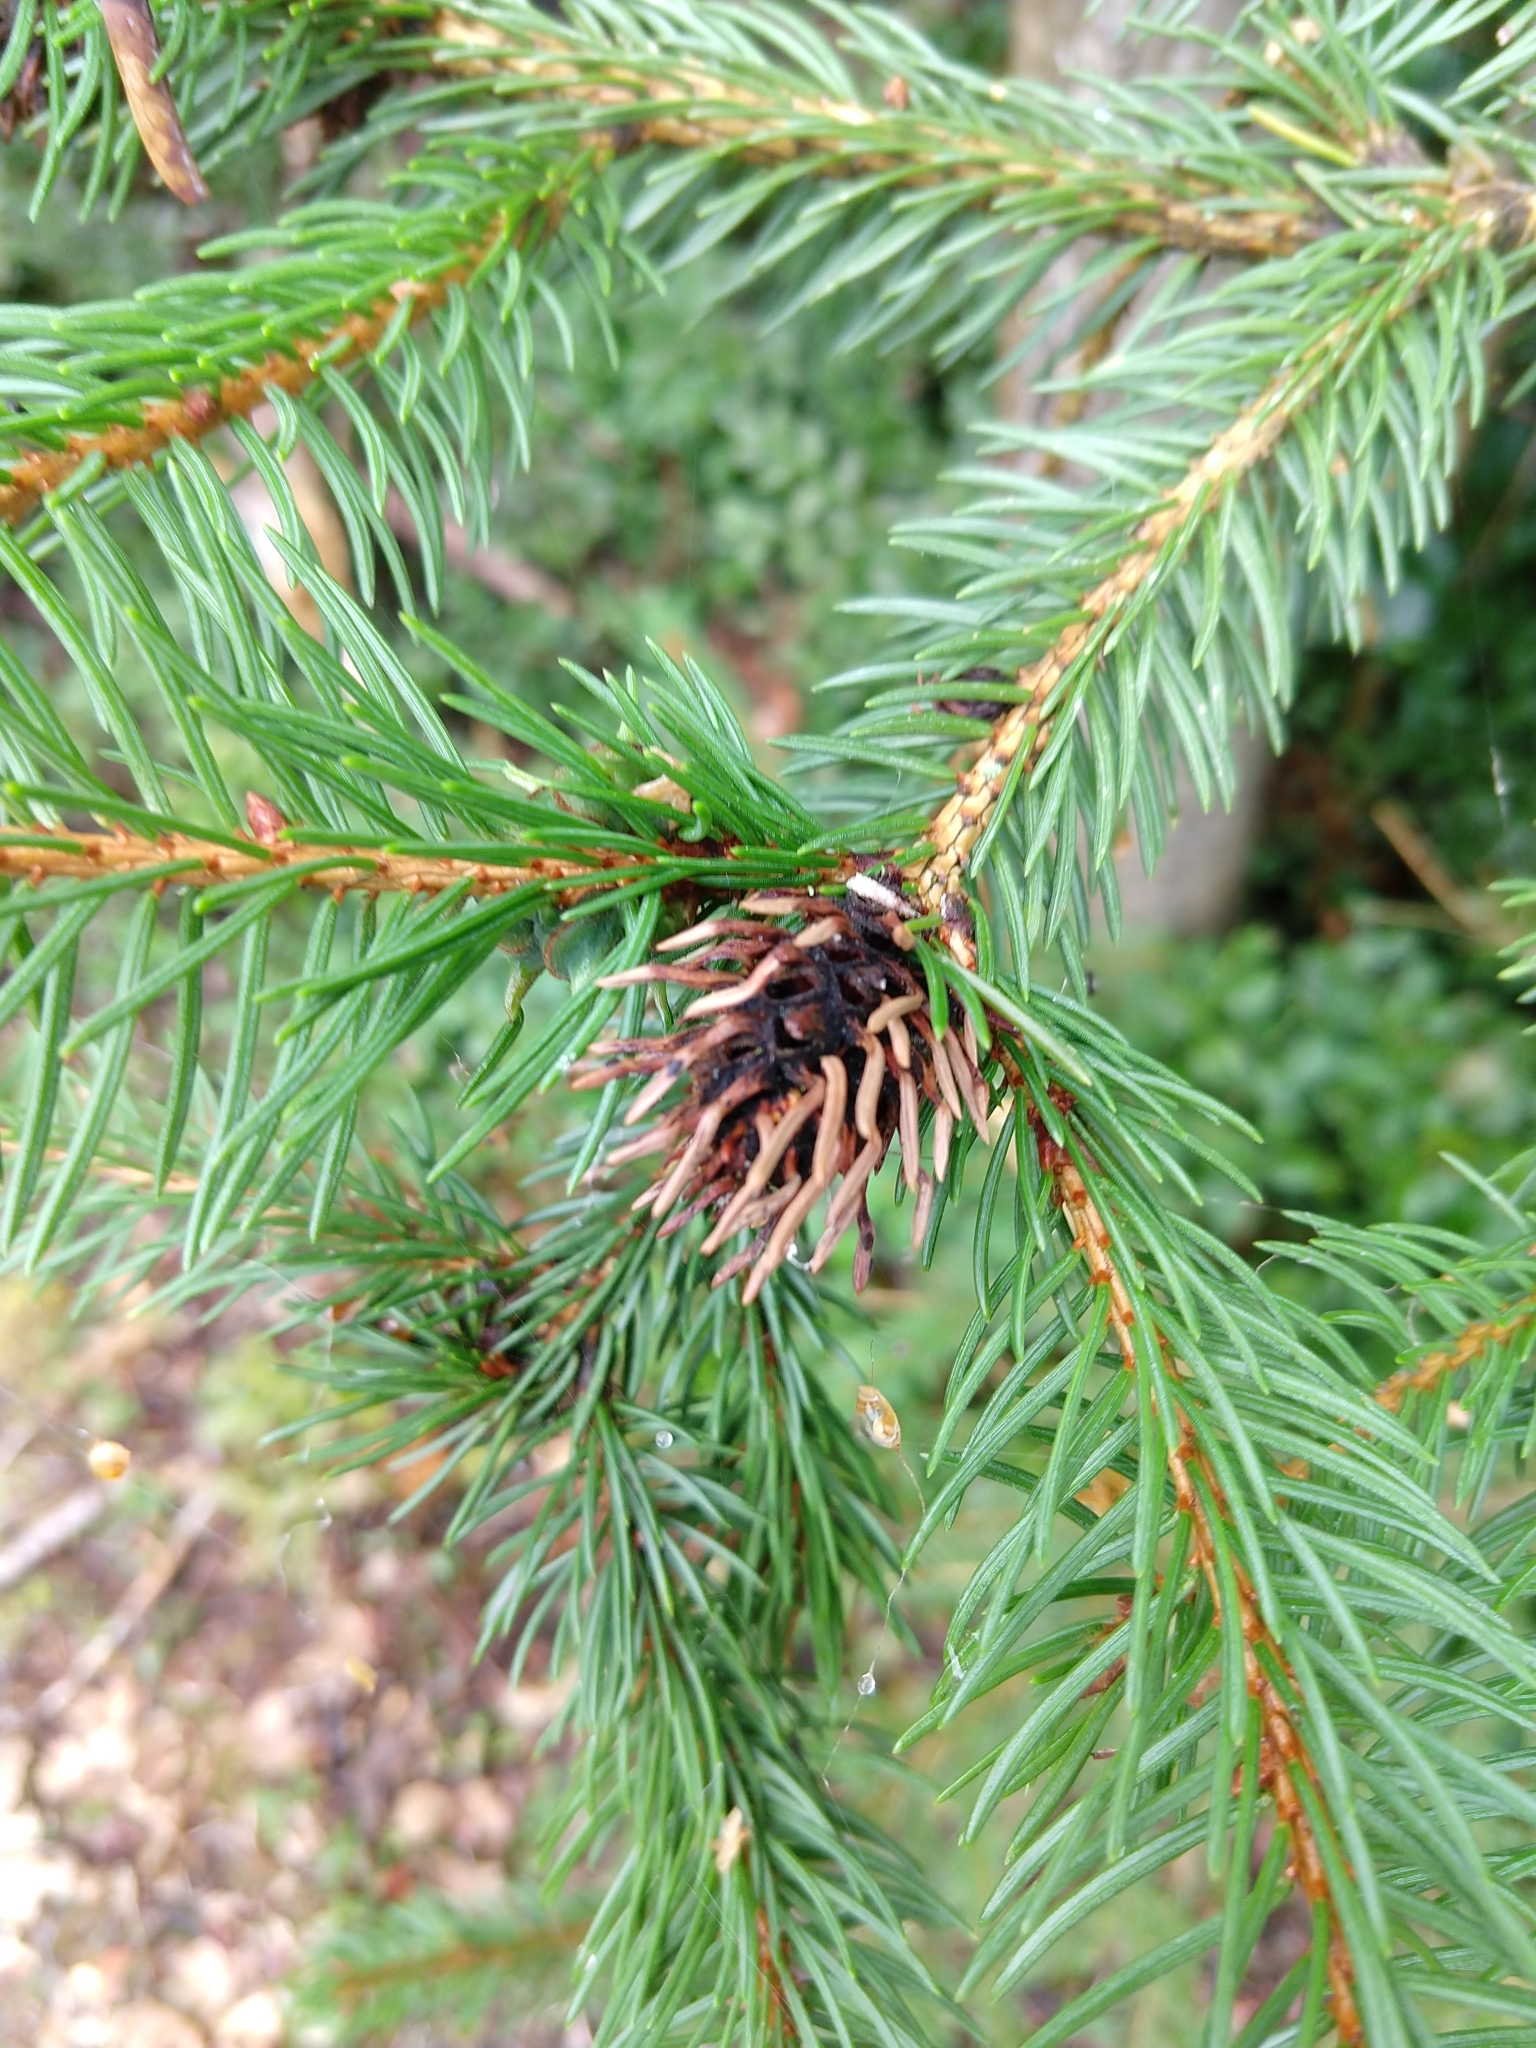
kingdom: Animalia
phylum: Arthropoda
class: Insecta
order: Hemiptera
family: Adelgidae
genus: Adelges
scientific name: Adelges abietis
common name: Eastern spruce gall adelgid
